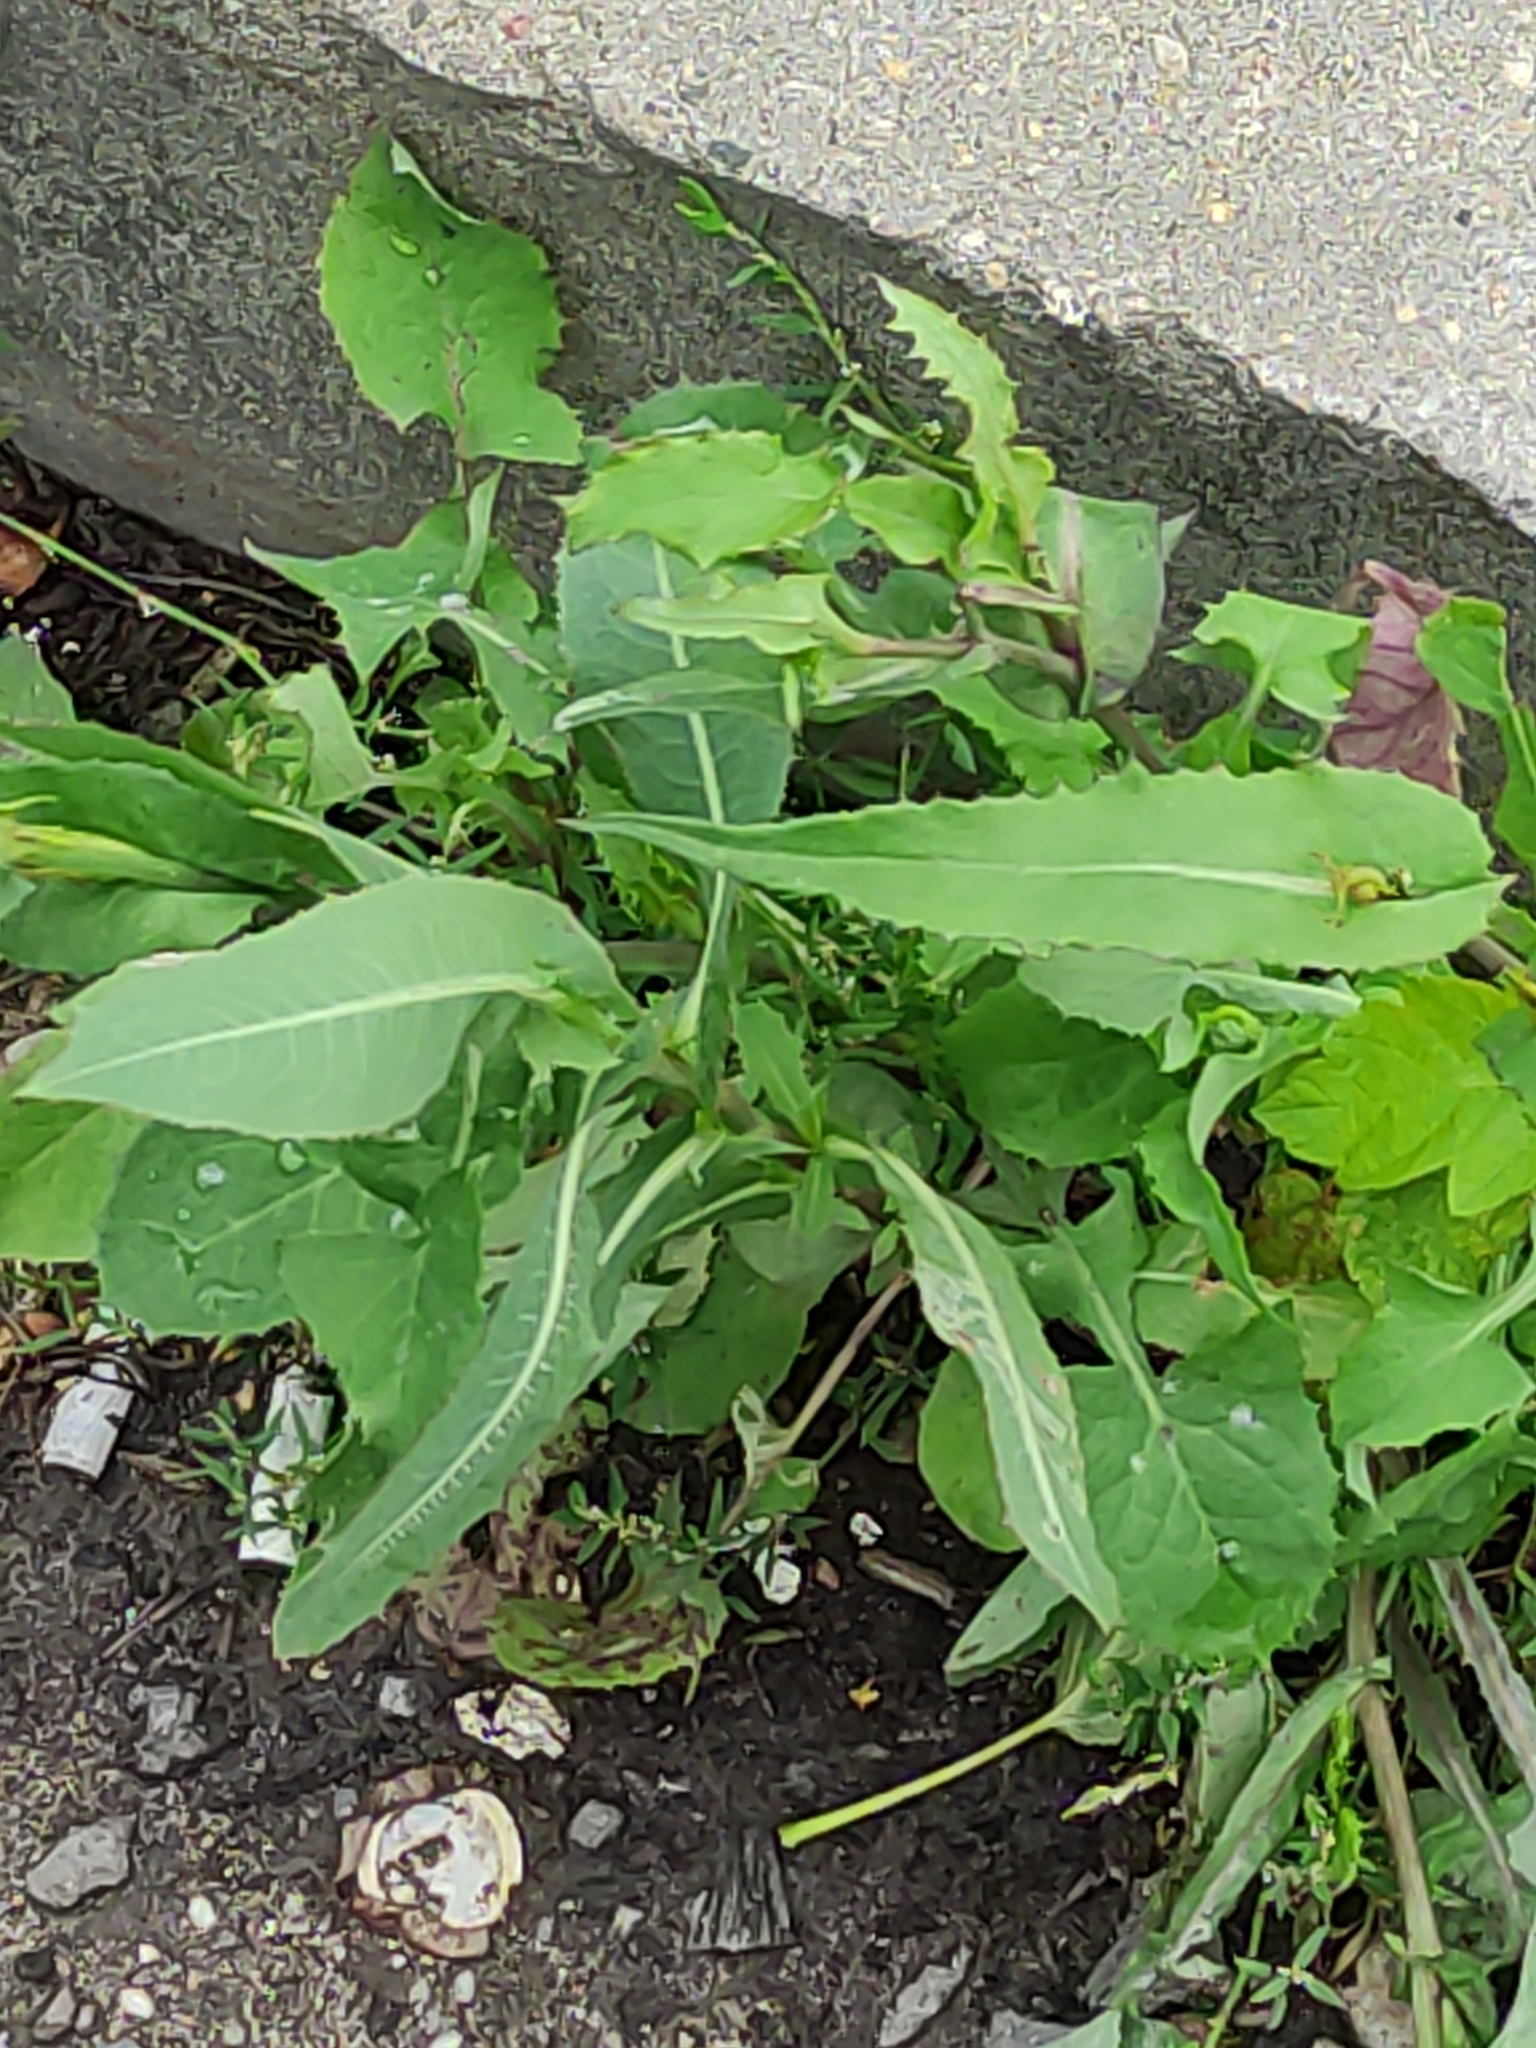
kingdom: Plantae
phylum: Tracheophyta
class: Magnoliopsida
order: Asterales
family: Asteraceae
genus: Lactuca
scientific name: Lactuca serriola
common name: Prickly lettuce
